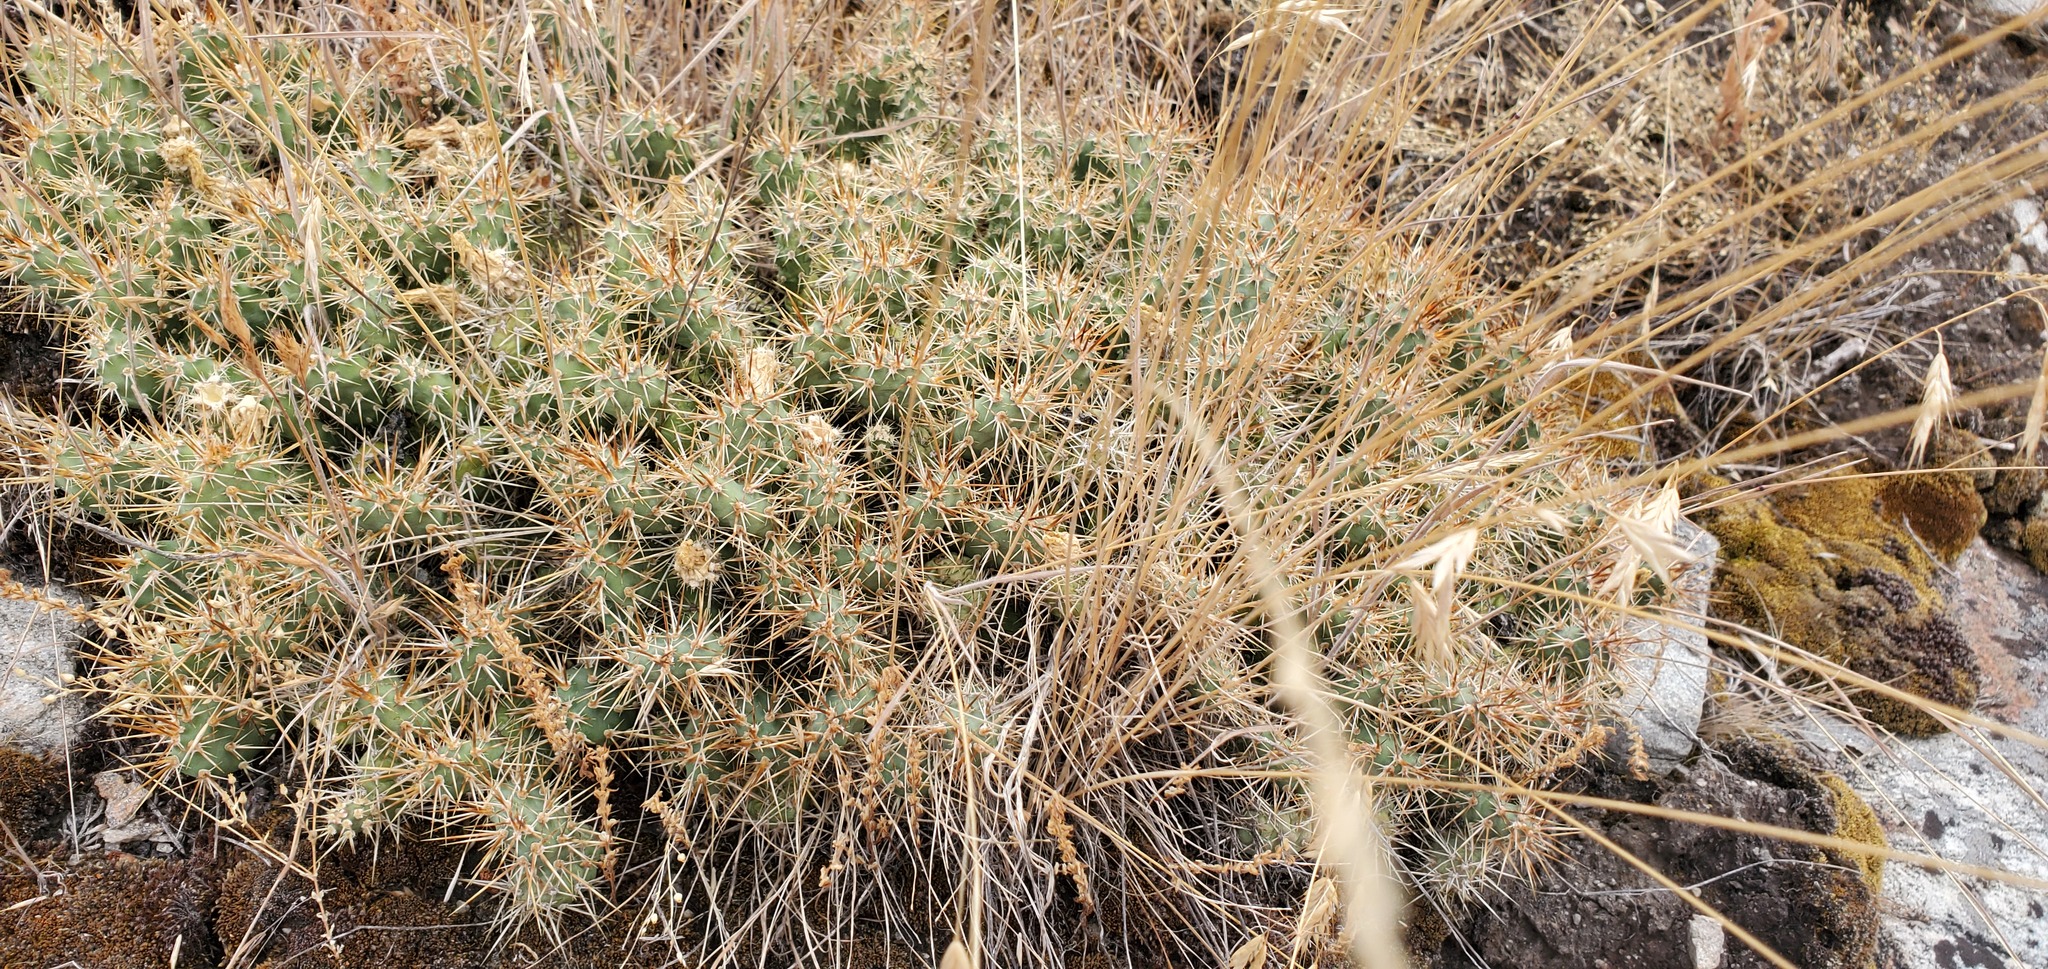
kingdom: Plantae
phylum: Tracheophyta
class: Magnoliopsida
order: Caryophyllales
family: Cactaceae
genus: Opuntia
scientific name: Opuntia fragilis
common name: Brittle cactus
